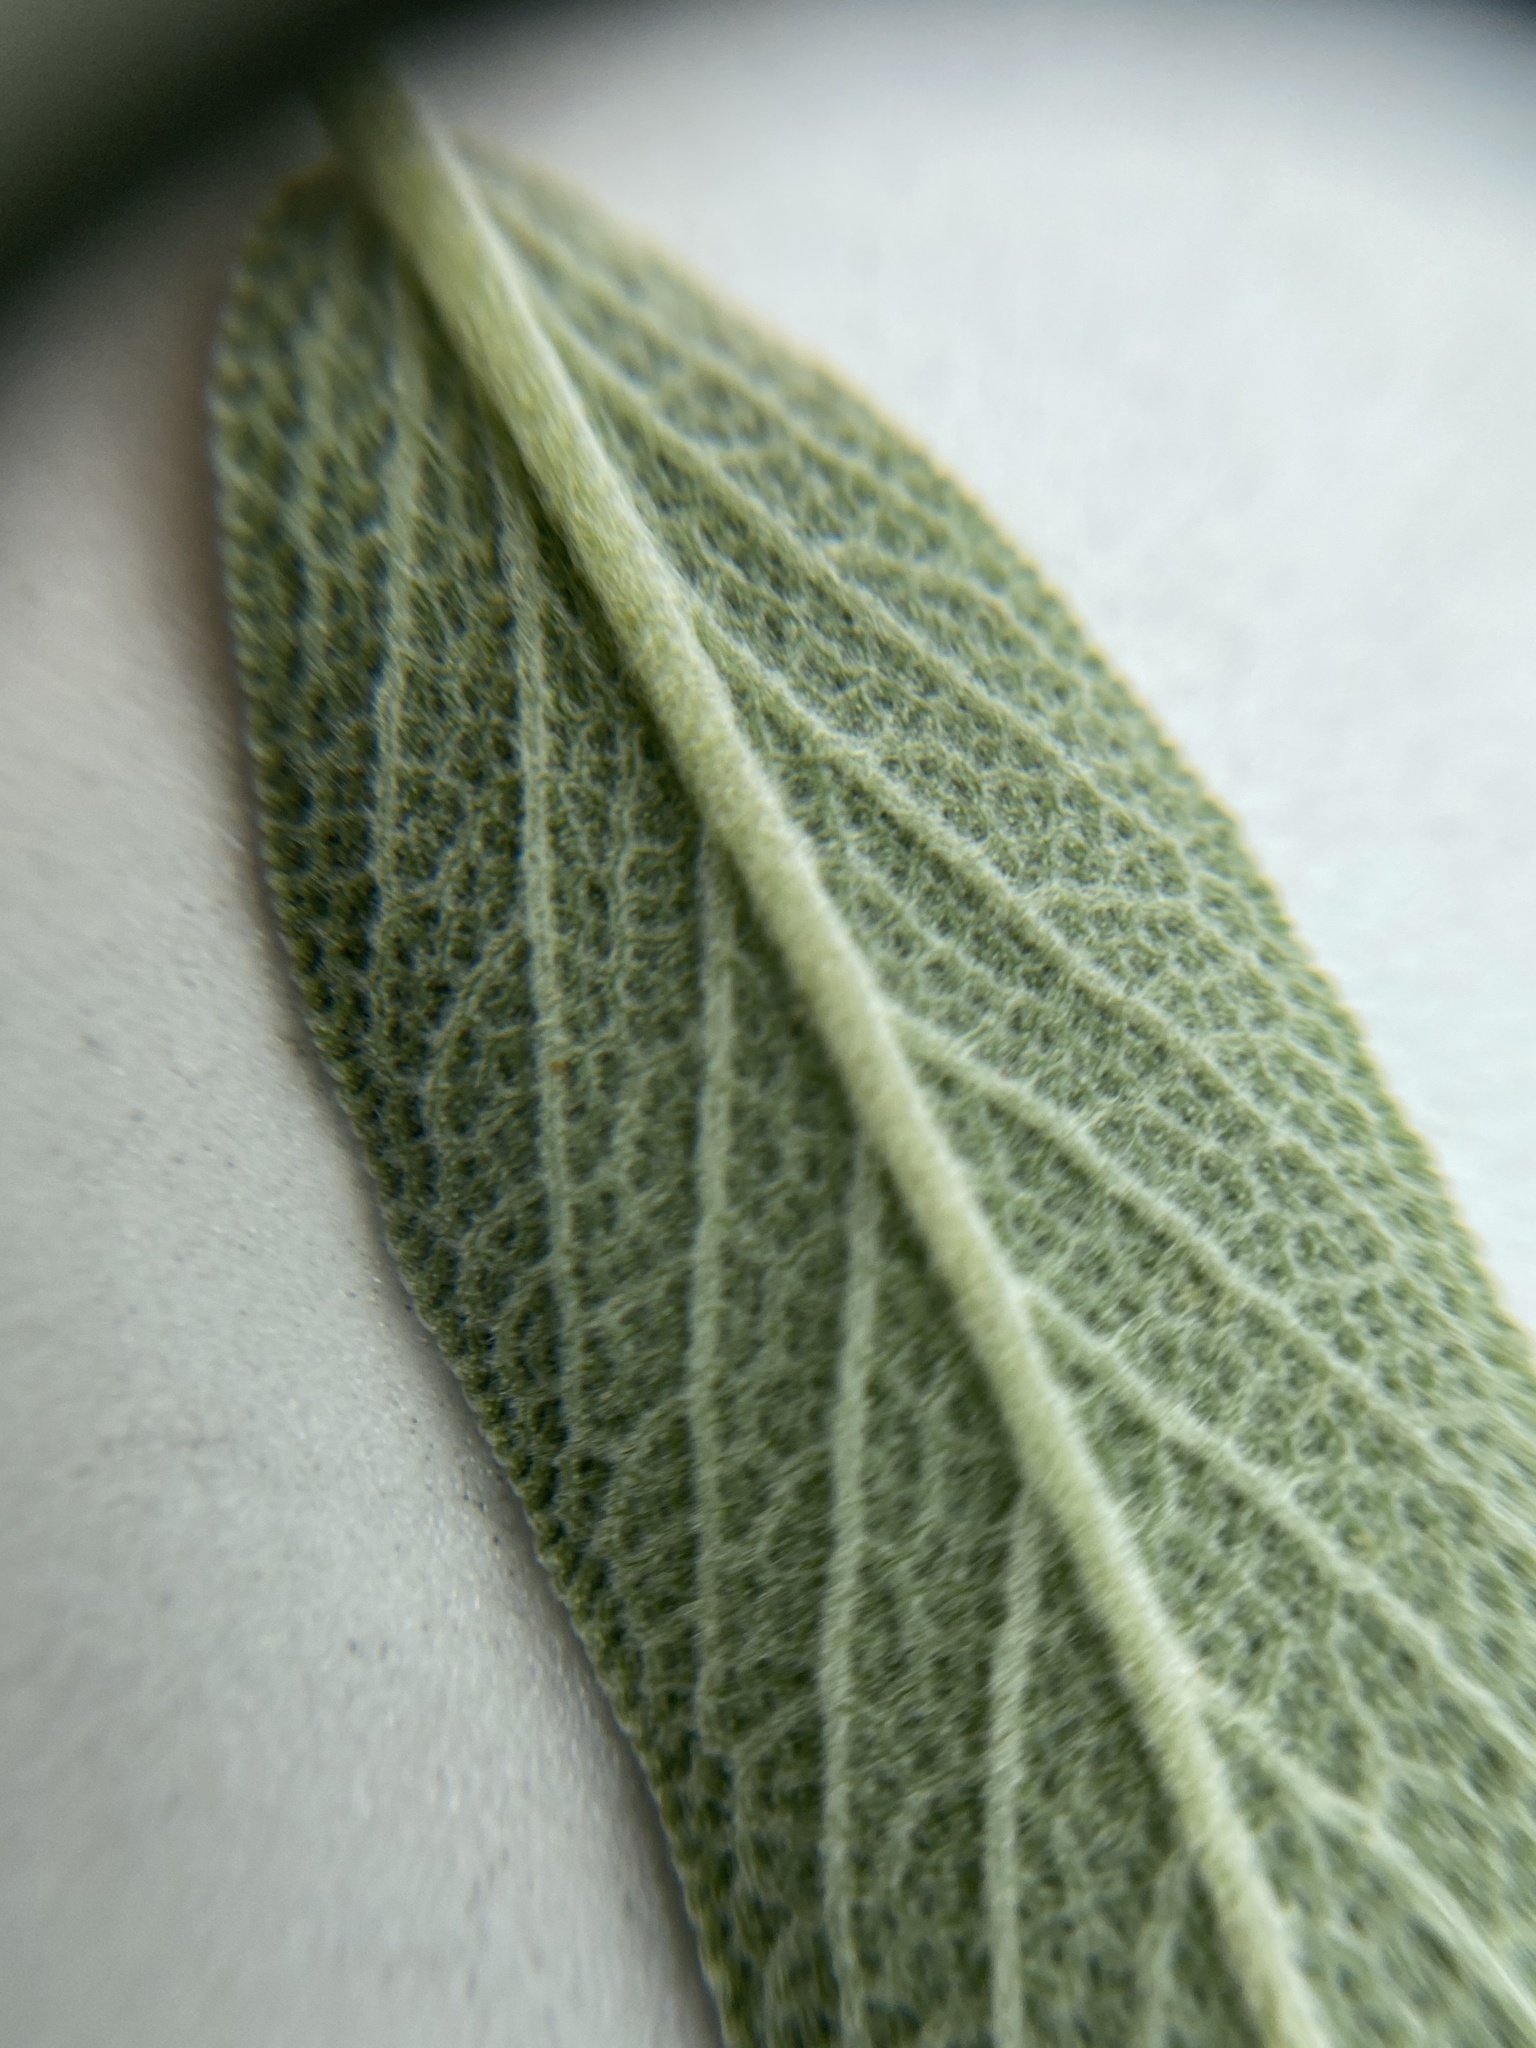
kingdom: Plantae
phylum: Tracheophyta
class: Magnoliopsida
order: Lamiales
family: Lamiaceae
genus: Salvia
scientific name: Salvia officinalis
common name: Sage
